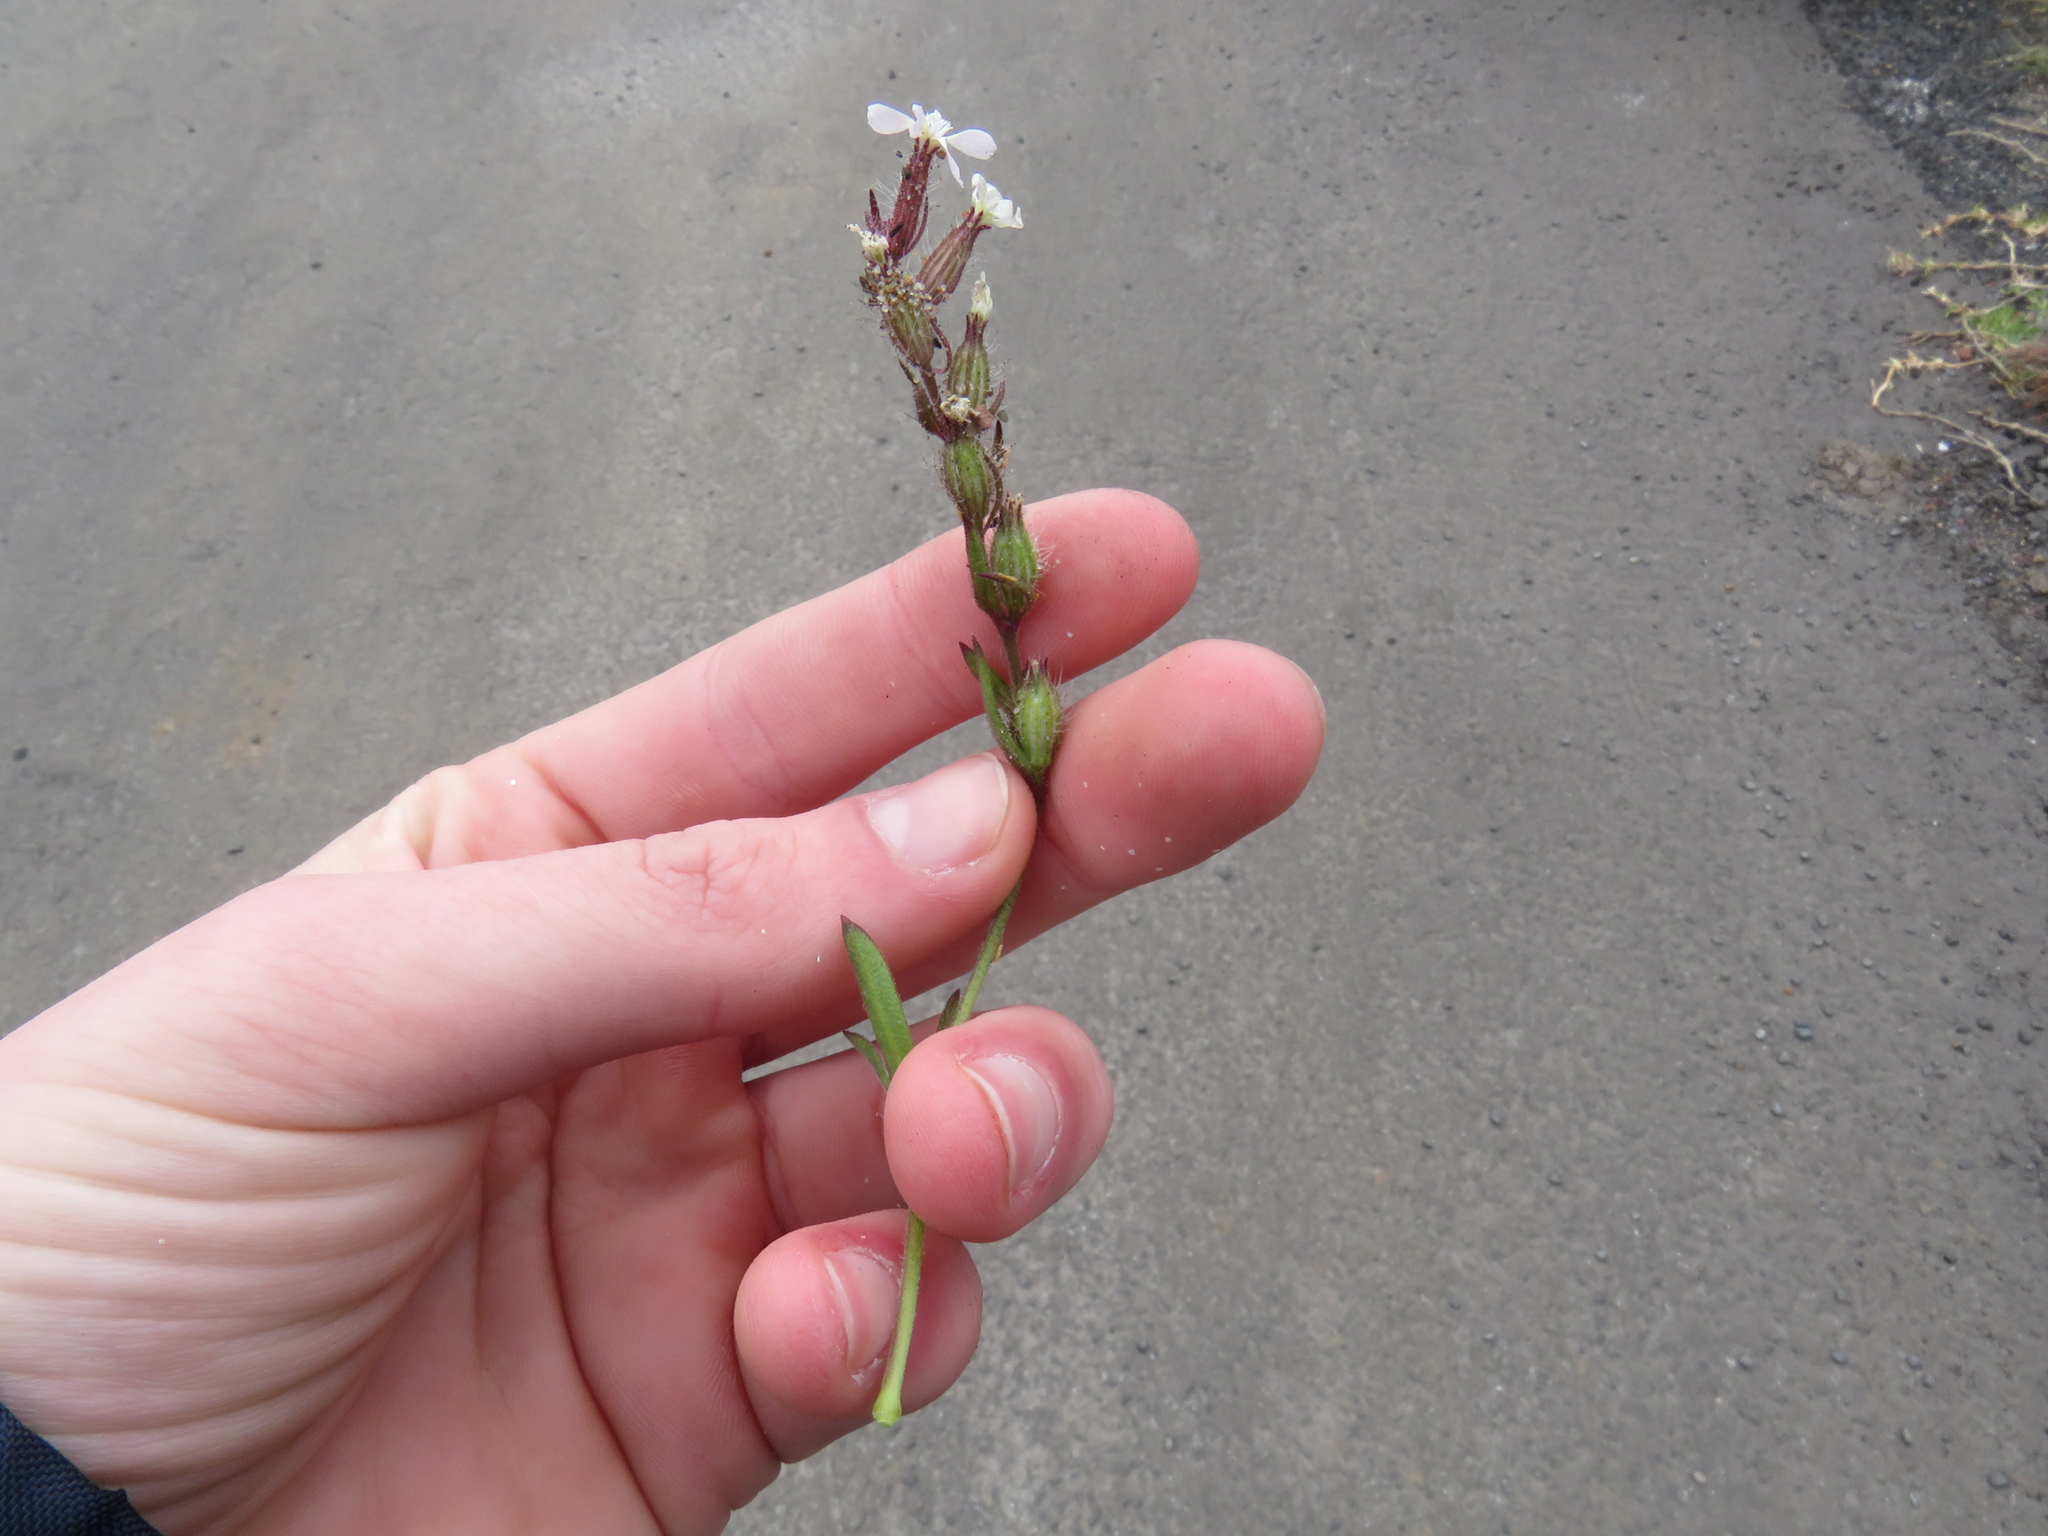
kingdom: Plantae
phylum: Tracheophyta
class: Magnoliopsida
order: Caryophyllales
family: Caryophyllaceae
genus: Silene
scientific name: Silene gallica
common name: Small-flowered catchfly
